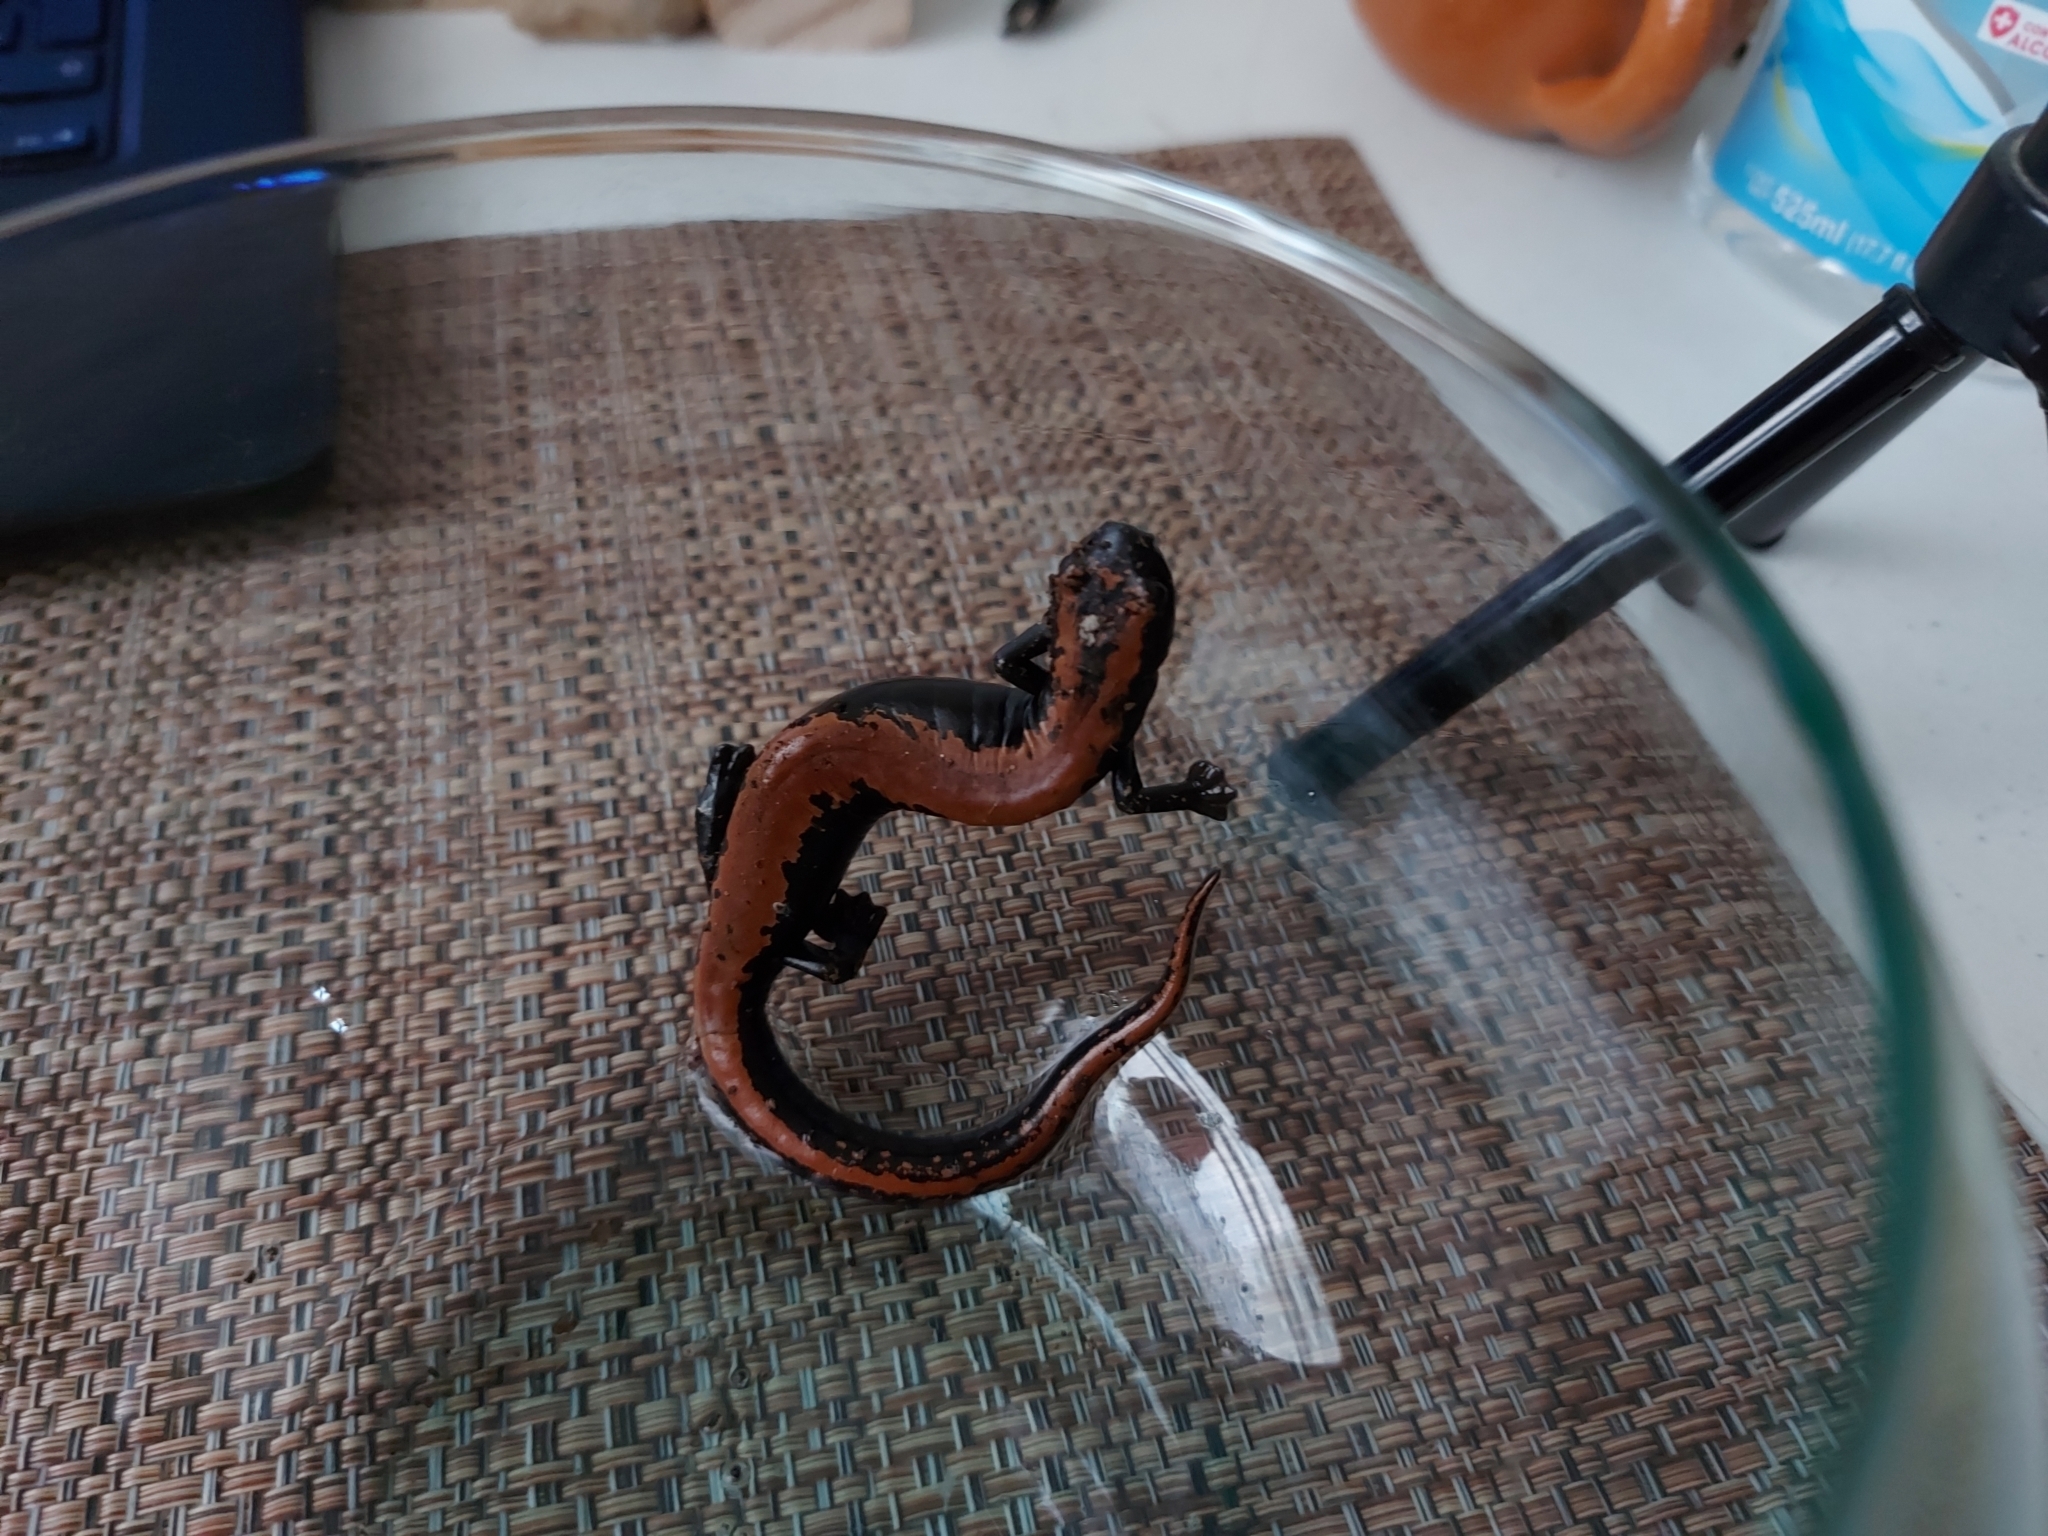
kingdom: Animalia
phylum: Chordata
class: Amphibia
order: Caudata
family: Plethodontidae
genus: Bolitoglossa
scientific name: Bolitoglossa platydactyla
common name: Broad-footed salamander
